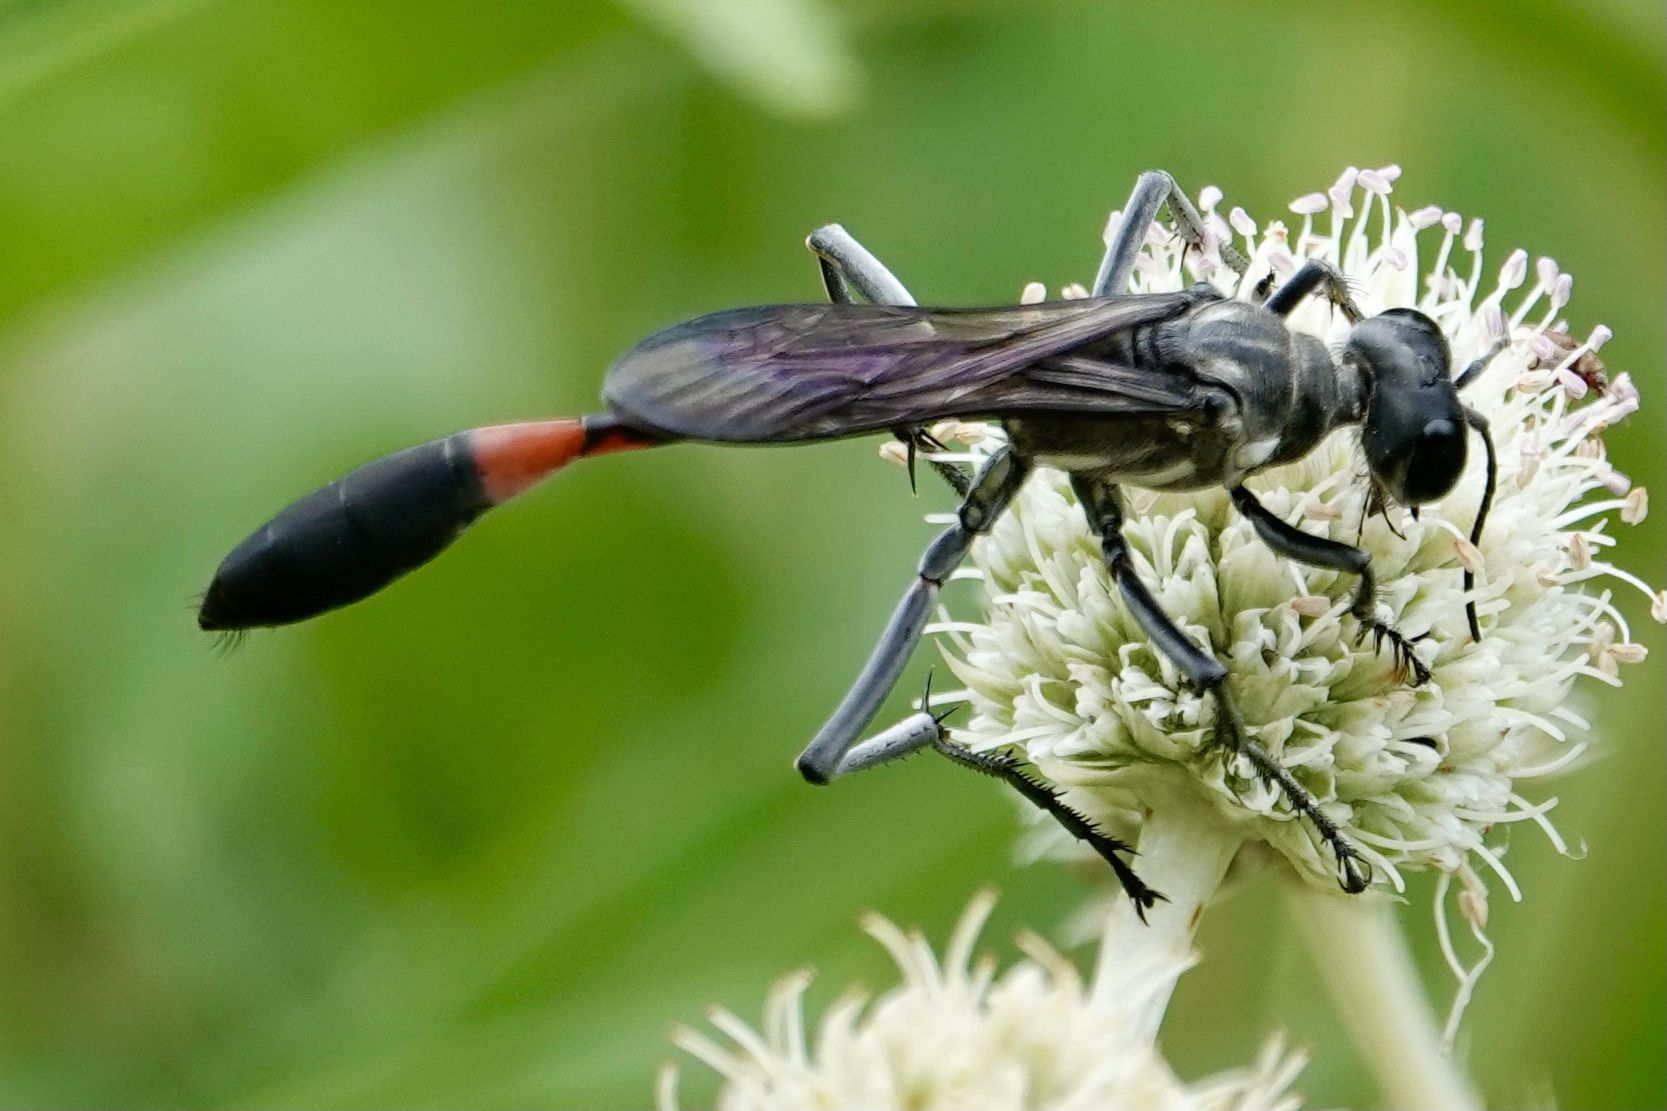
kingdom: Animalia
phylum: Arthropoda
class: Insecta
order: Hymenoptera
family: Sphecidae
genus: Ammophila
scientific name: Ammophila procera
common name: Common thread-waisted wasp
